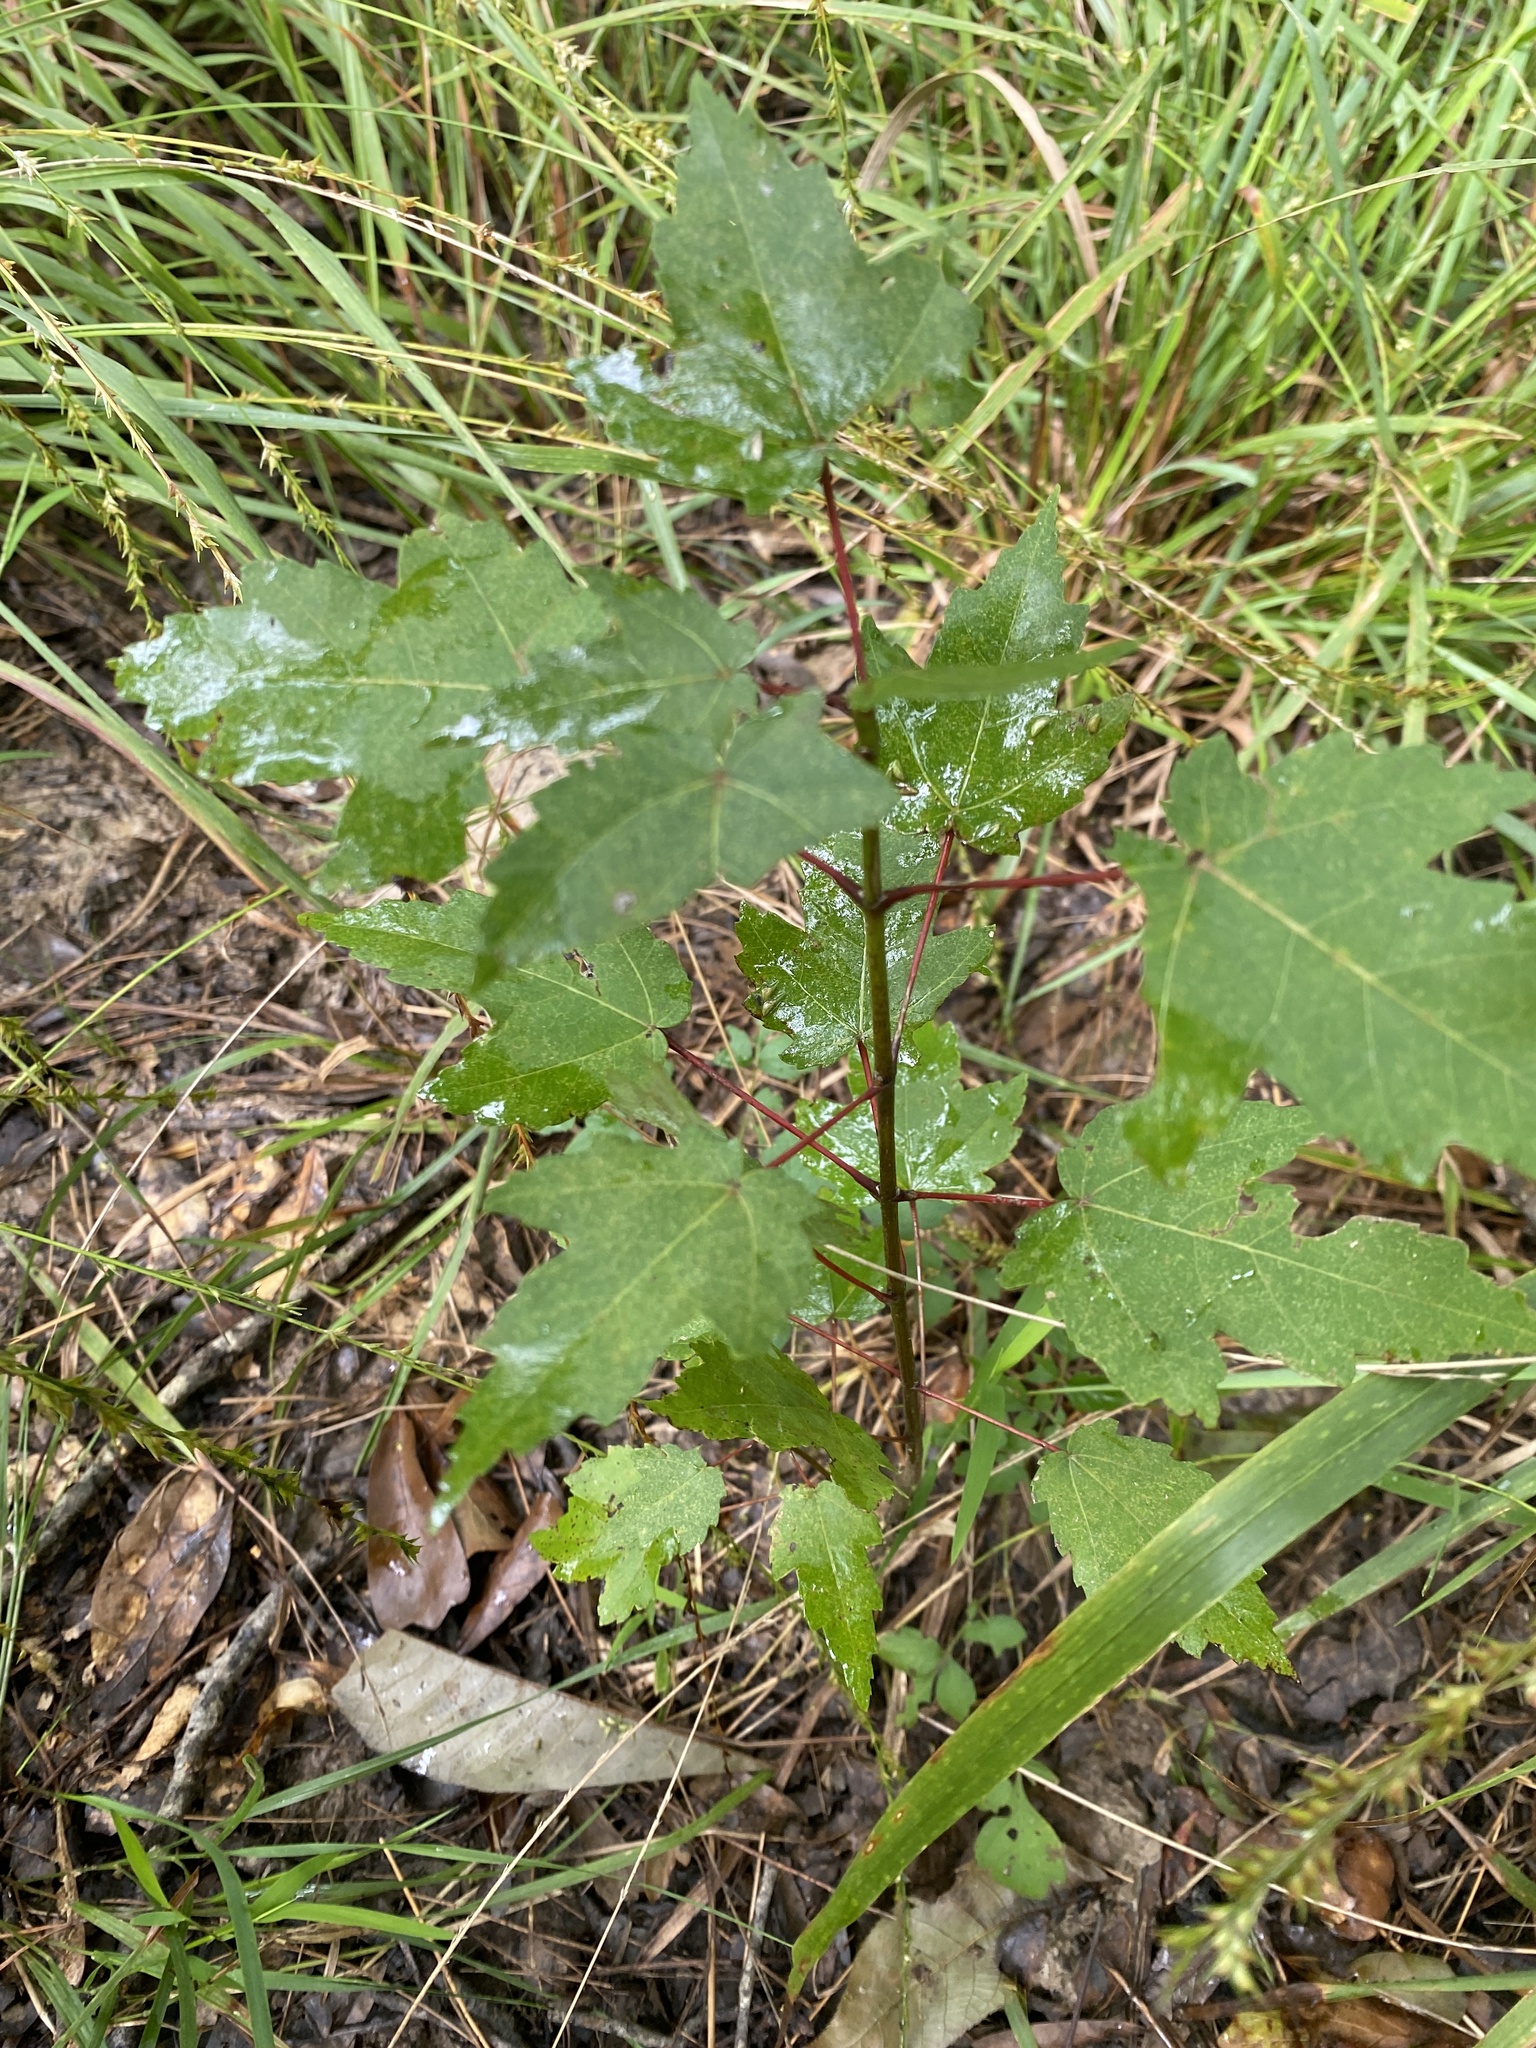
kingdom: Plantae
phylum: Tracheophyta
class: Magnoliopsida
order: Sapindales
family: Sapindaceae
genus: Acer
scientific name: Acer rubrum
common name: Red maple
